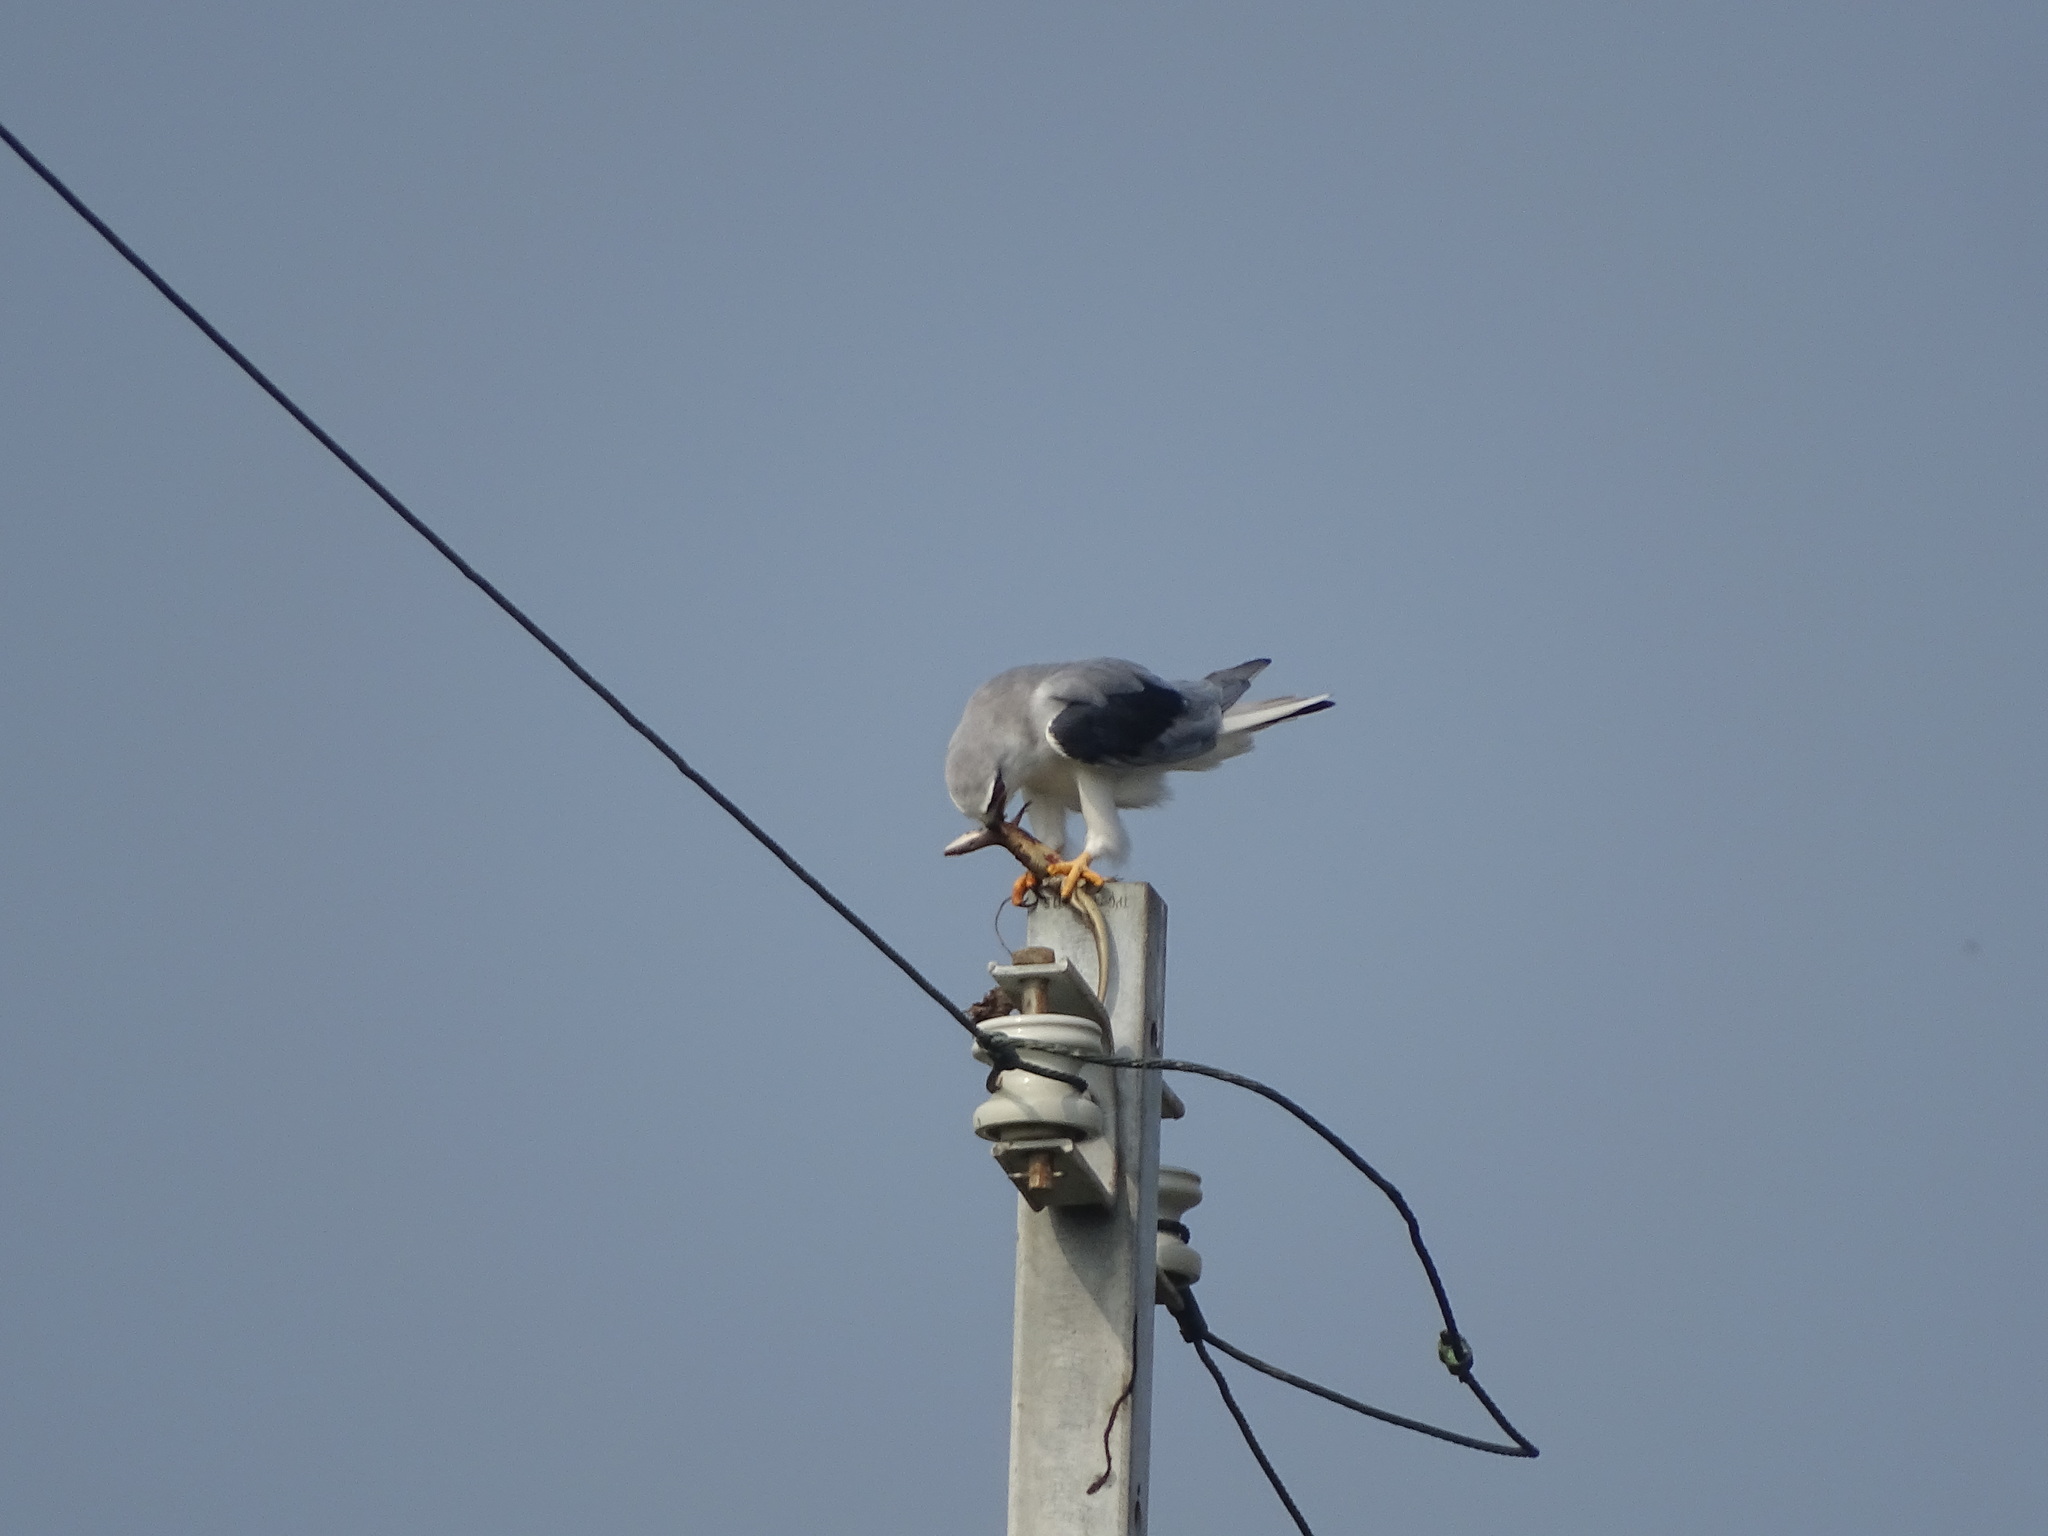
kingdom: Animalia
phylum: Chordata
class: Aves
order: Accipitriformes
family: Accipitridae
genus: Elanus
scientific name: Elanus caeruleus
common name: Black-winged kite
